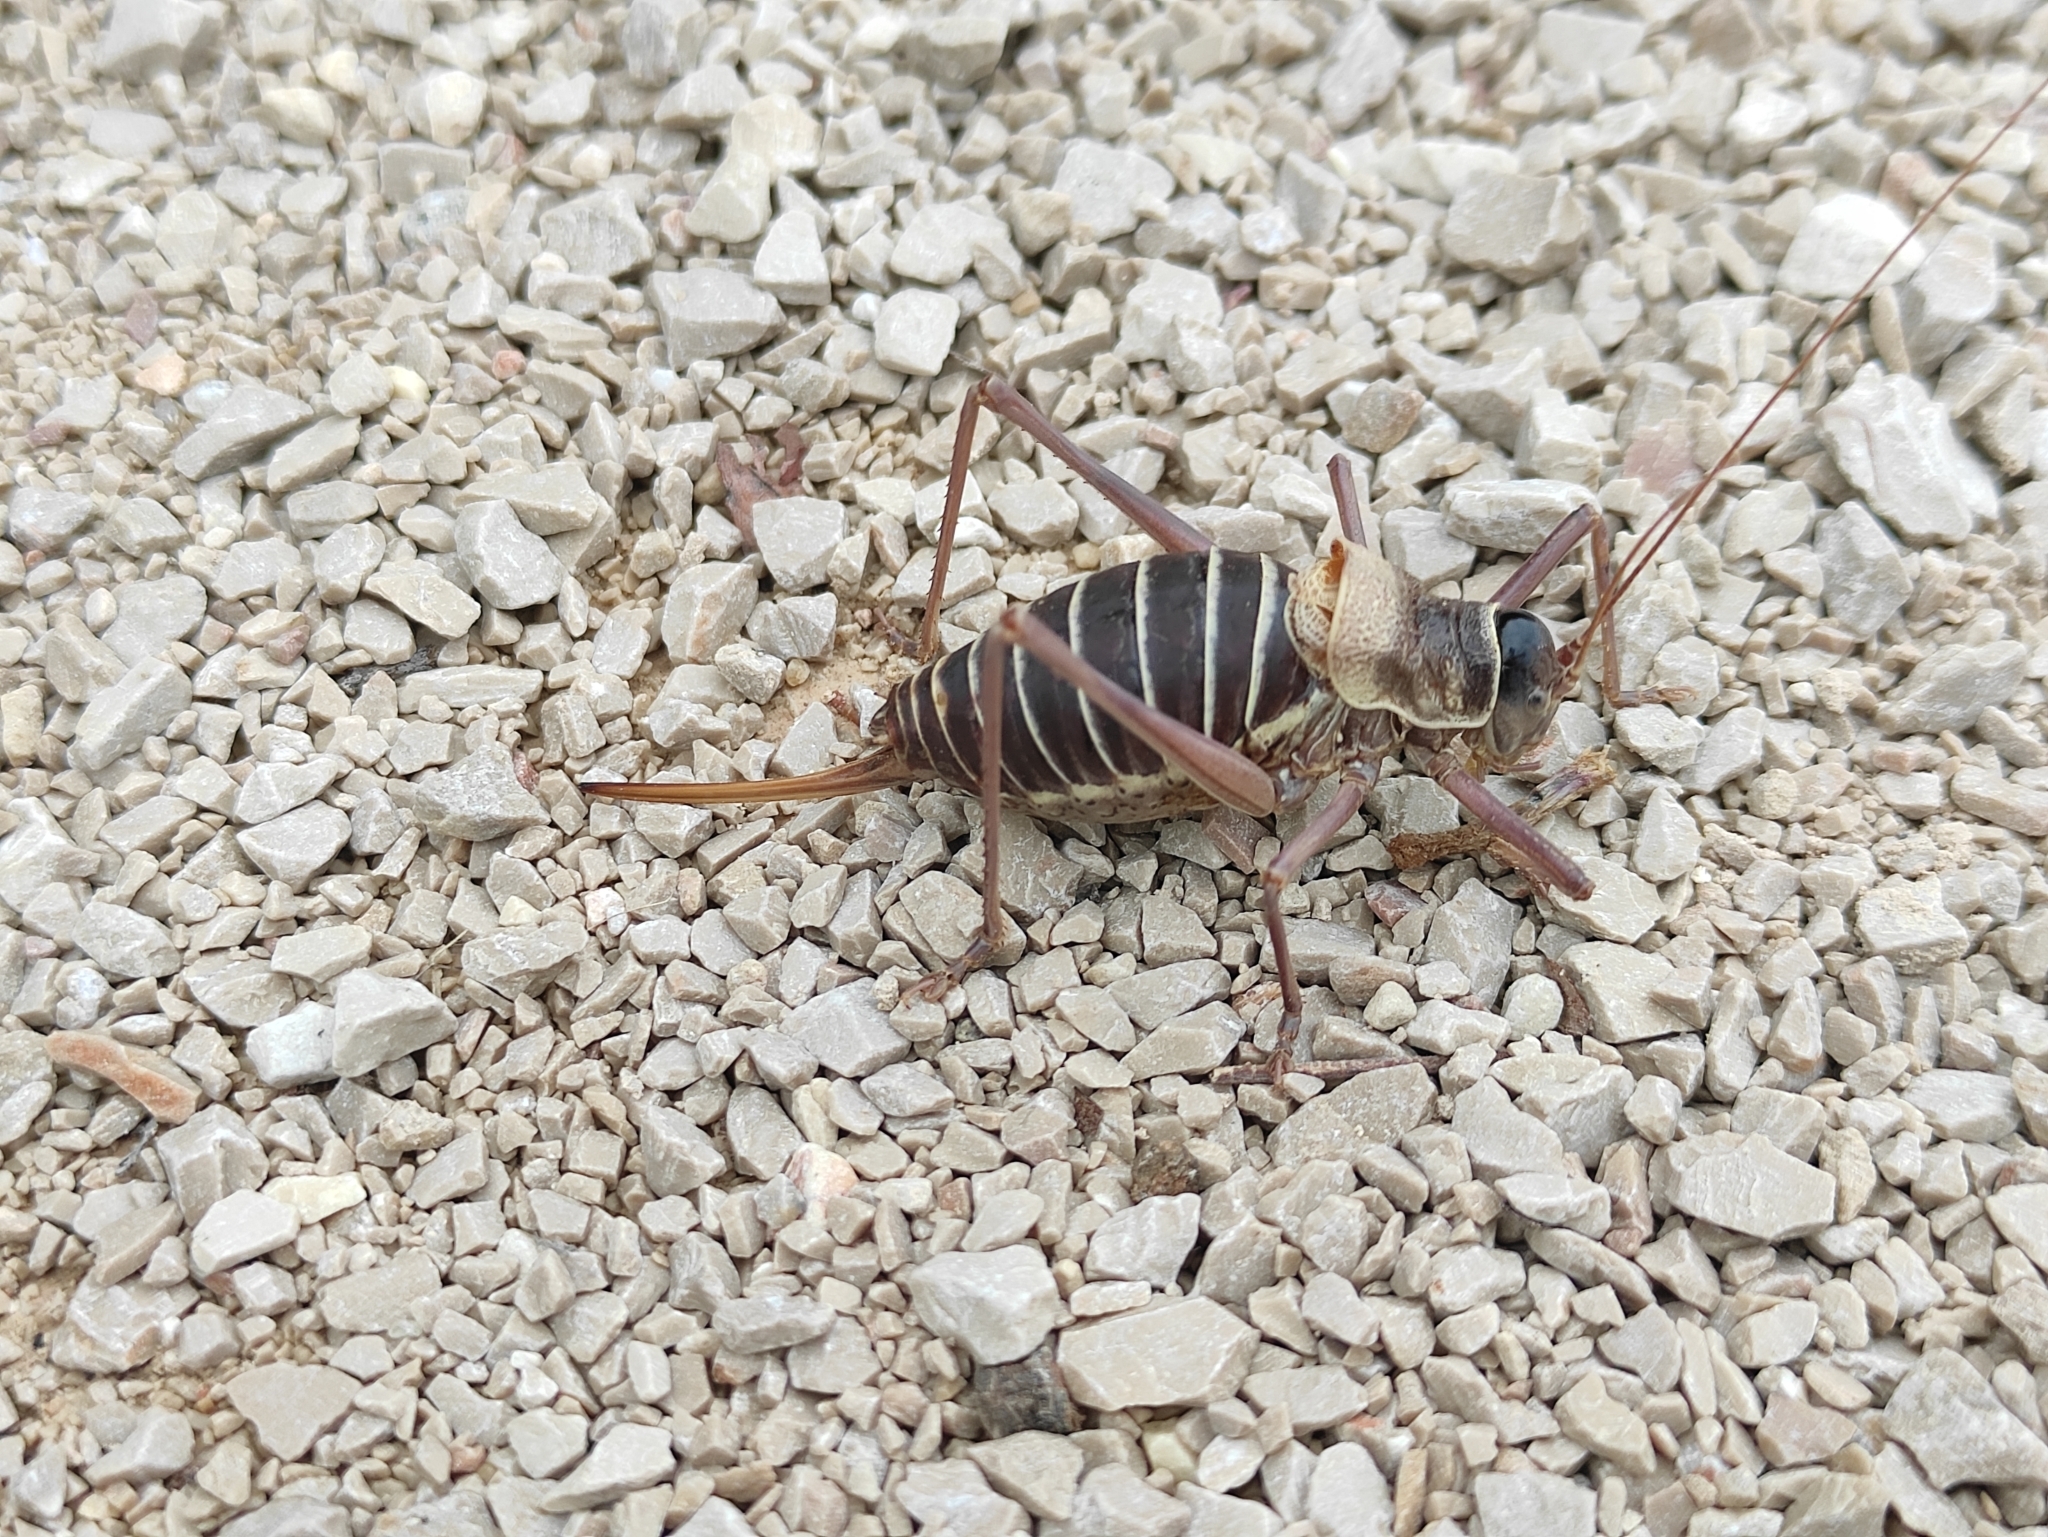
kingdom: Animalia
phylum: Arthropoda
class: Insecta
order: Orthoptera
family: Tettigoniidae
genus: Ephippiger
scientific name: Ephippiger diurnus
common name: Western saddle bush-cricket
